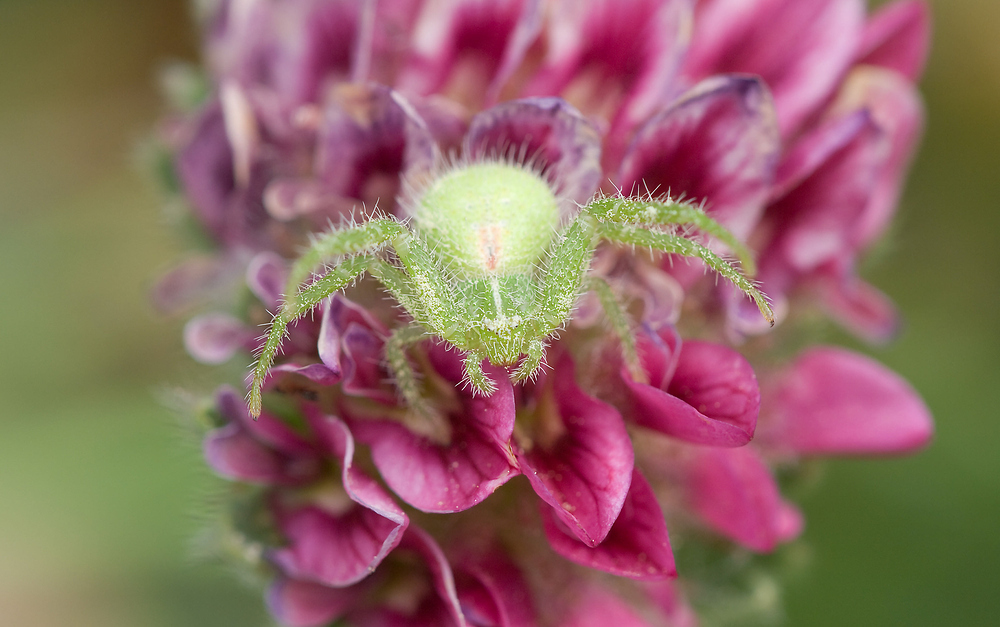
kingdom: Animalia
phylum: Arthropoda
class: Arachnida
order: Araneae
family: Thomisidae
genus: Heriaeus
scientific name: Heriaeus
